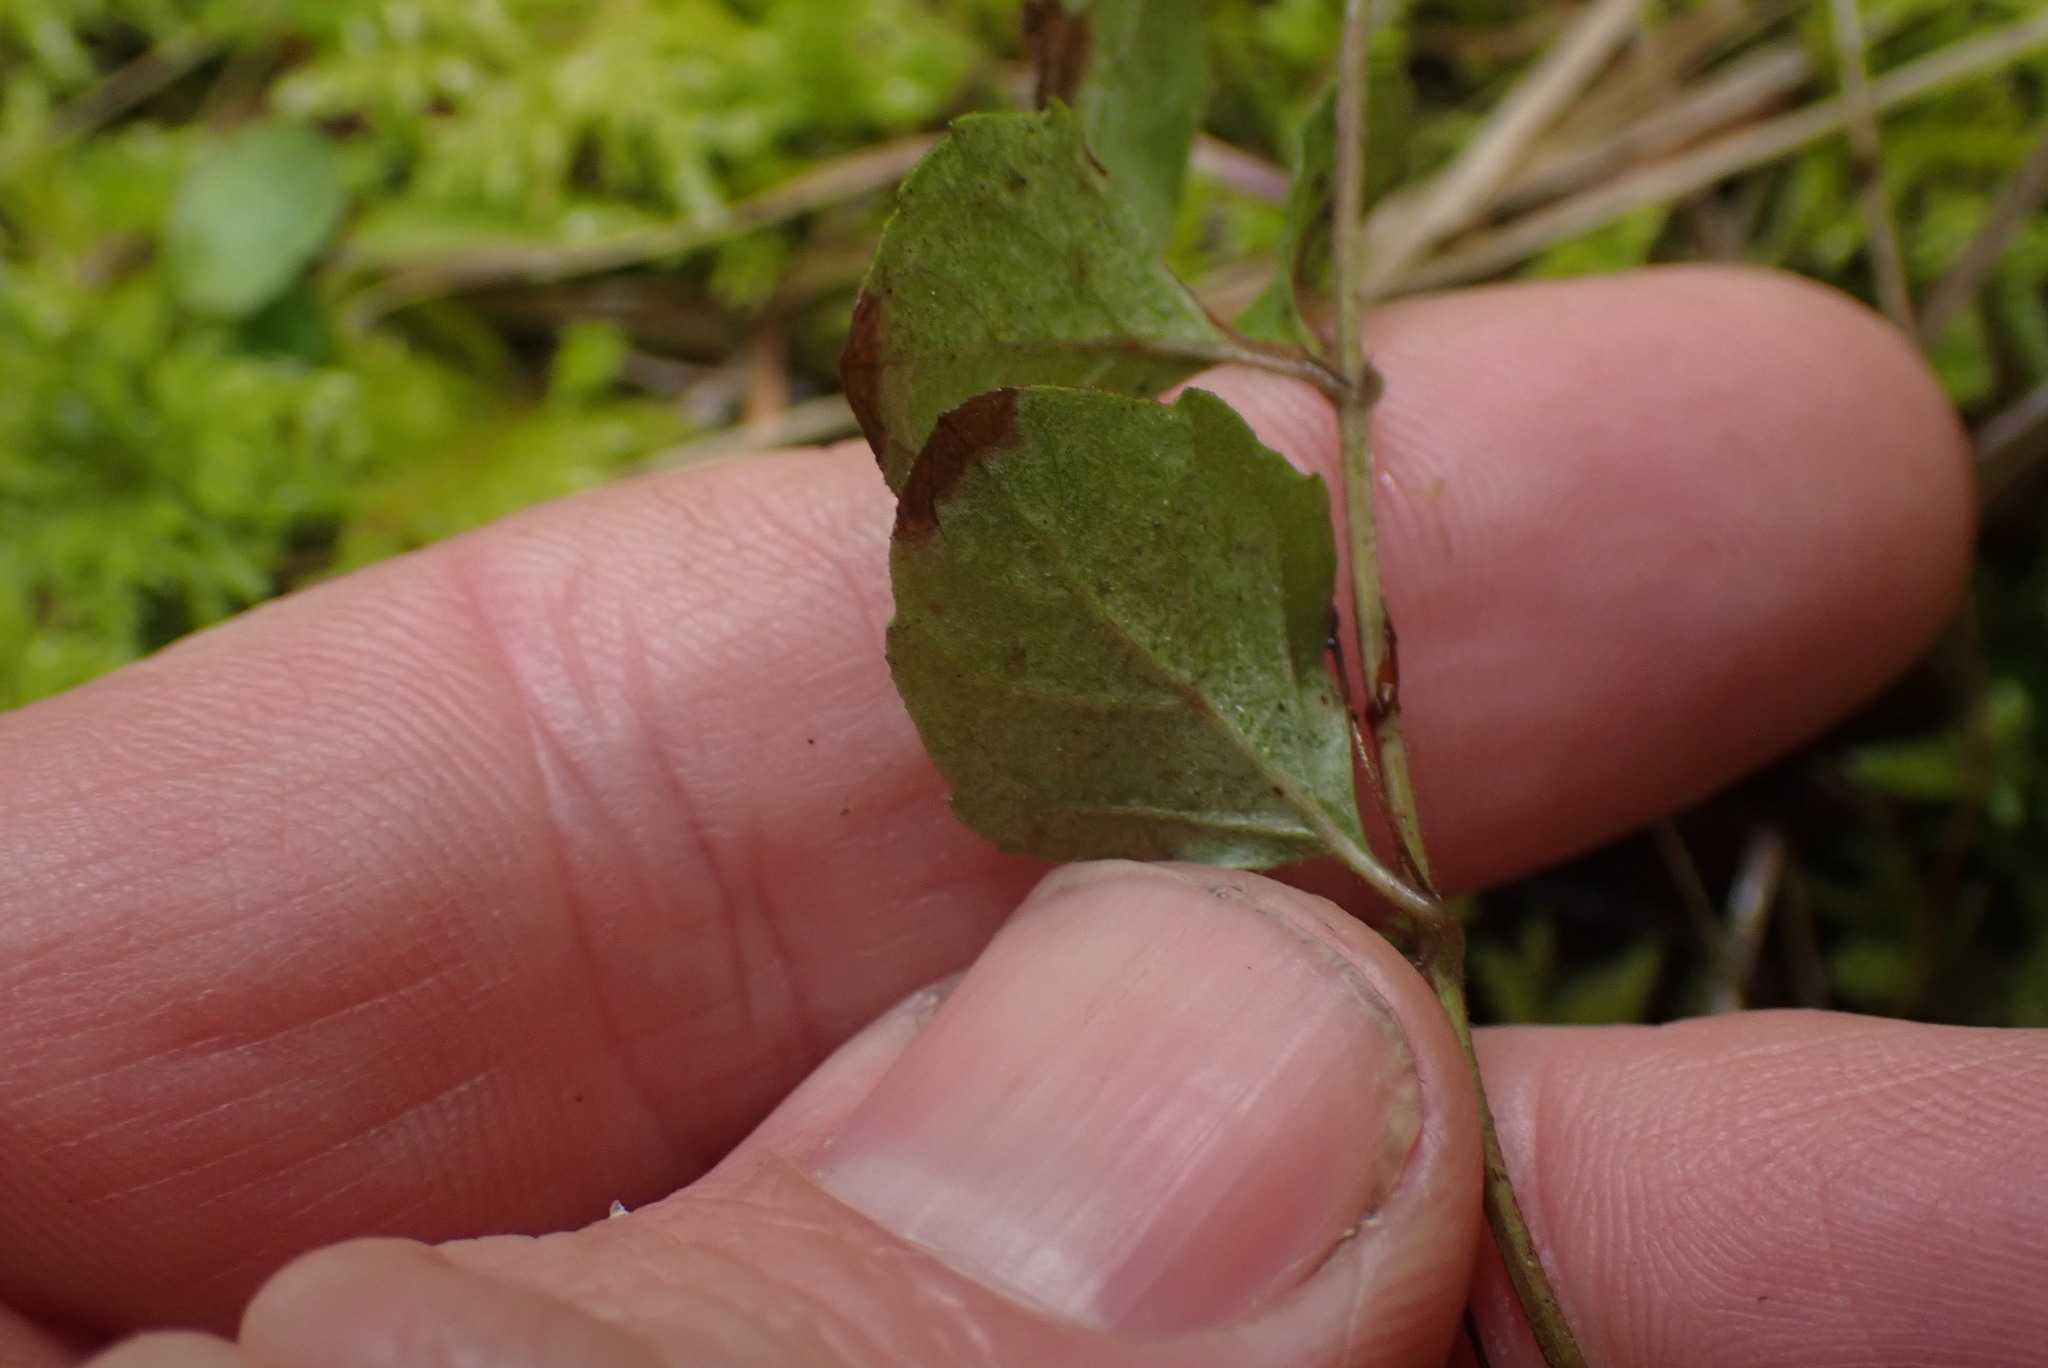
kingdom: Plantae
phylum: Tracheophyta
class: Magnoliopsida
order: Lamiales
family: Lamiaceae
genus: Micromeria
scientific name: Micromeria douglasii
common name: Yerba buena
